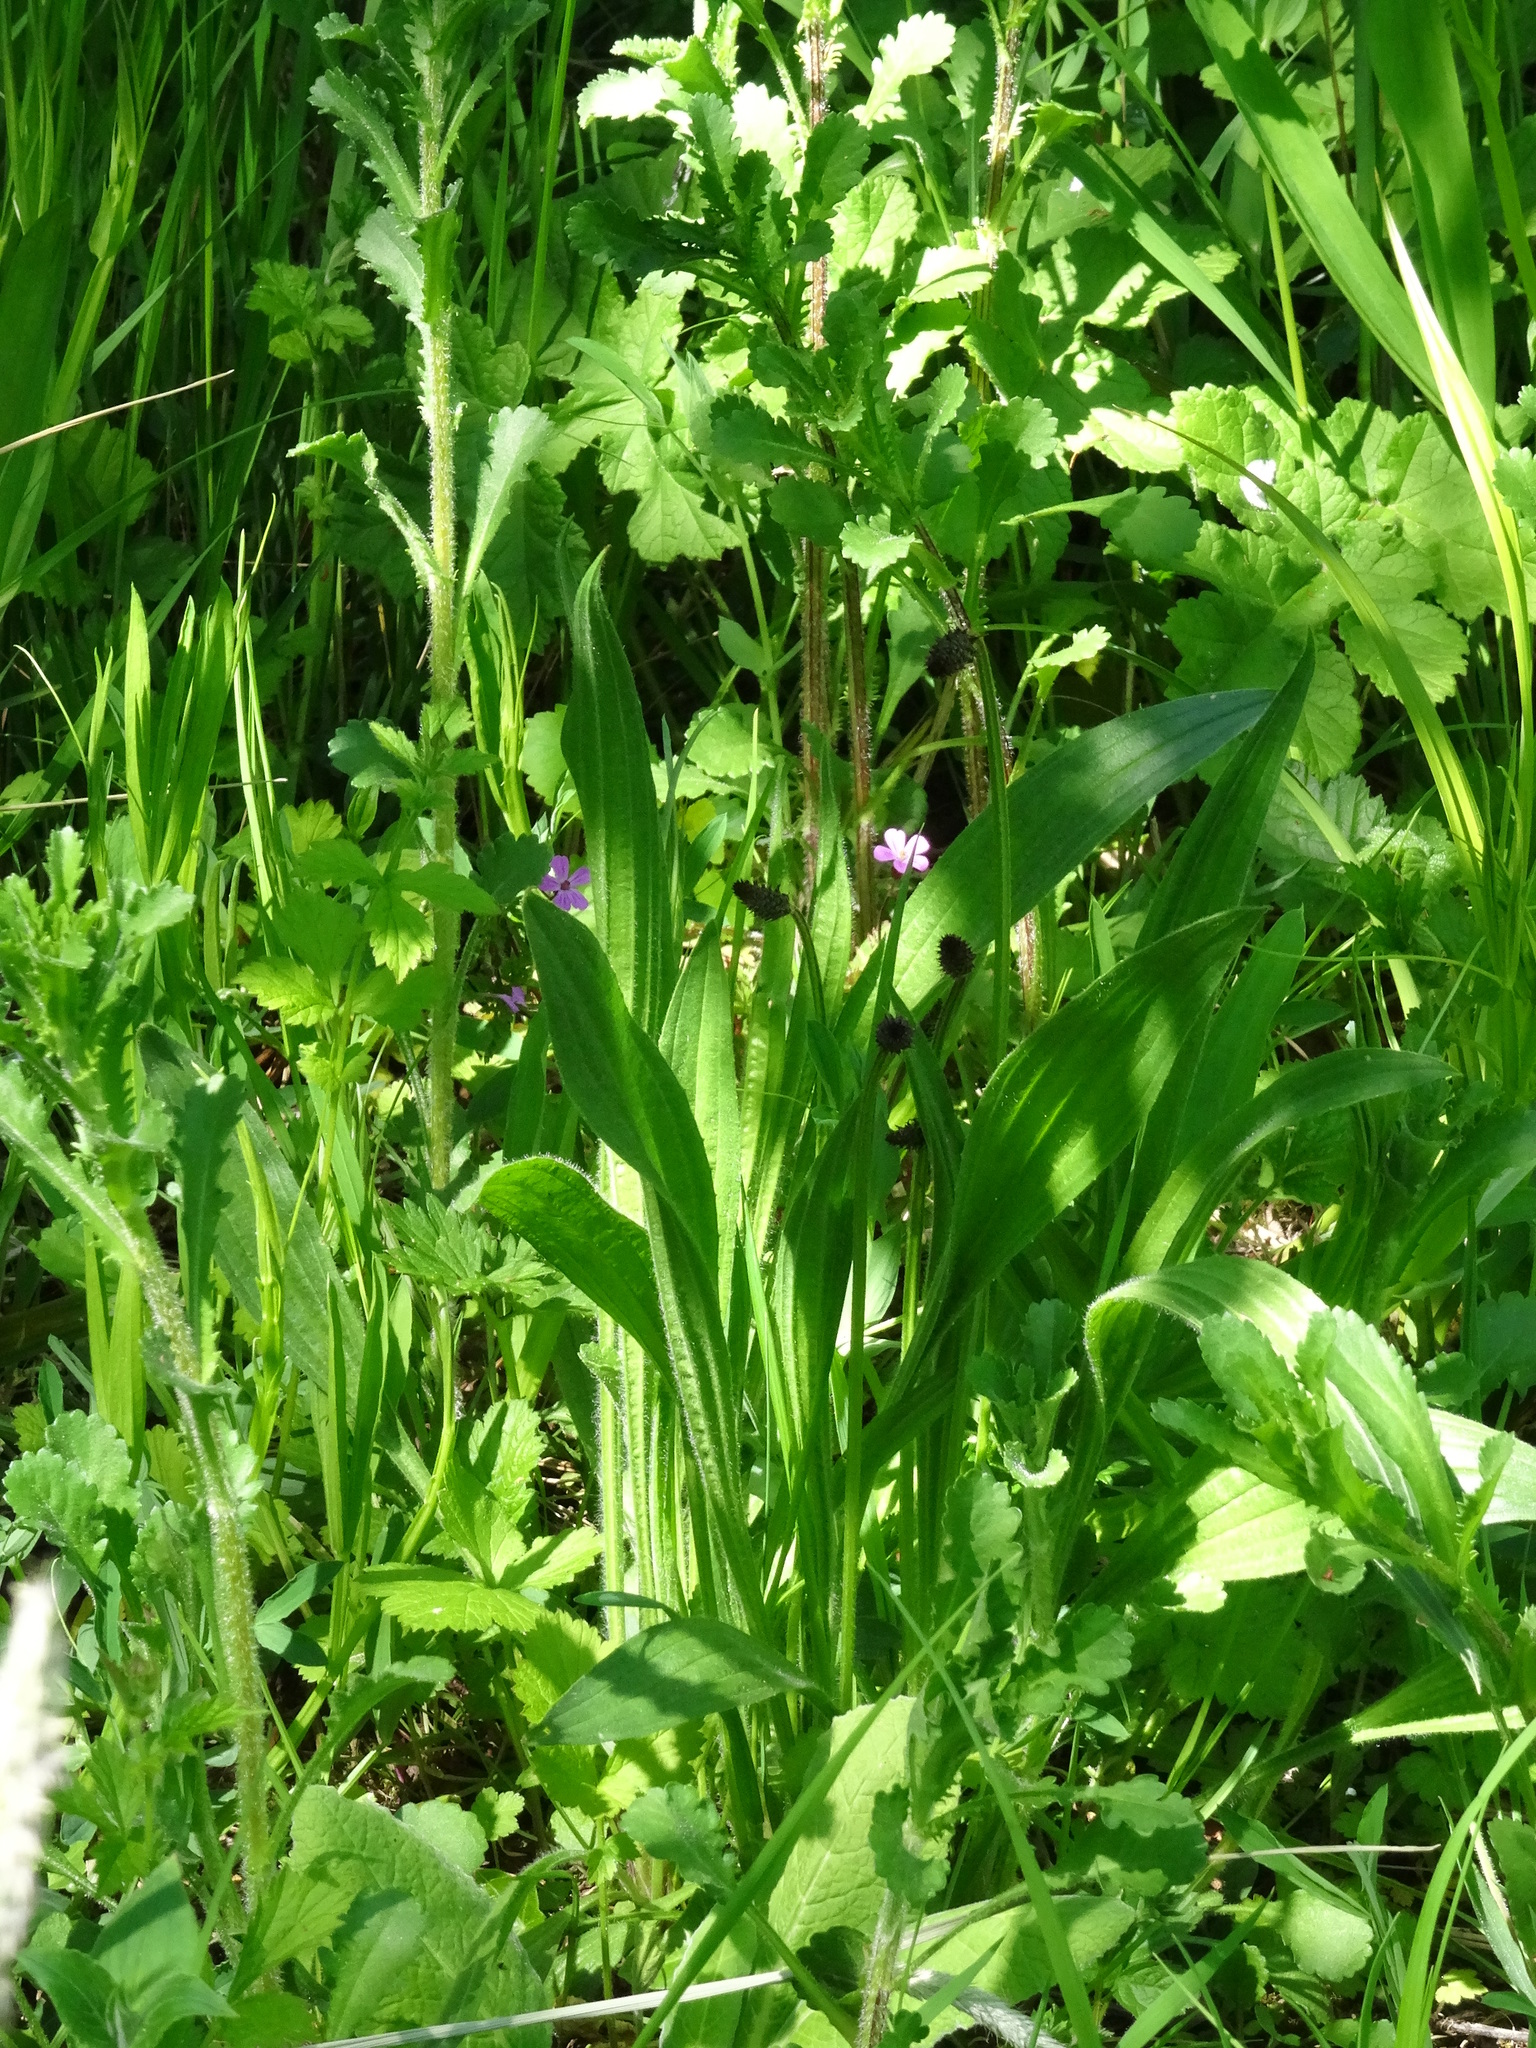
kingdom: Plantae
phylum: Tracheophyta
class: Magnoliopsida
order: Lamiales
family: Plantaginaceae
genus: Plantago
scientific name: Plantago lanceolata
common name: Ribwort plantain
